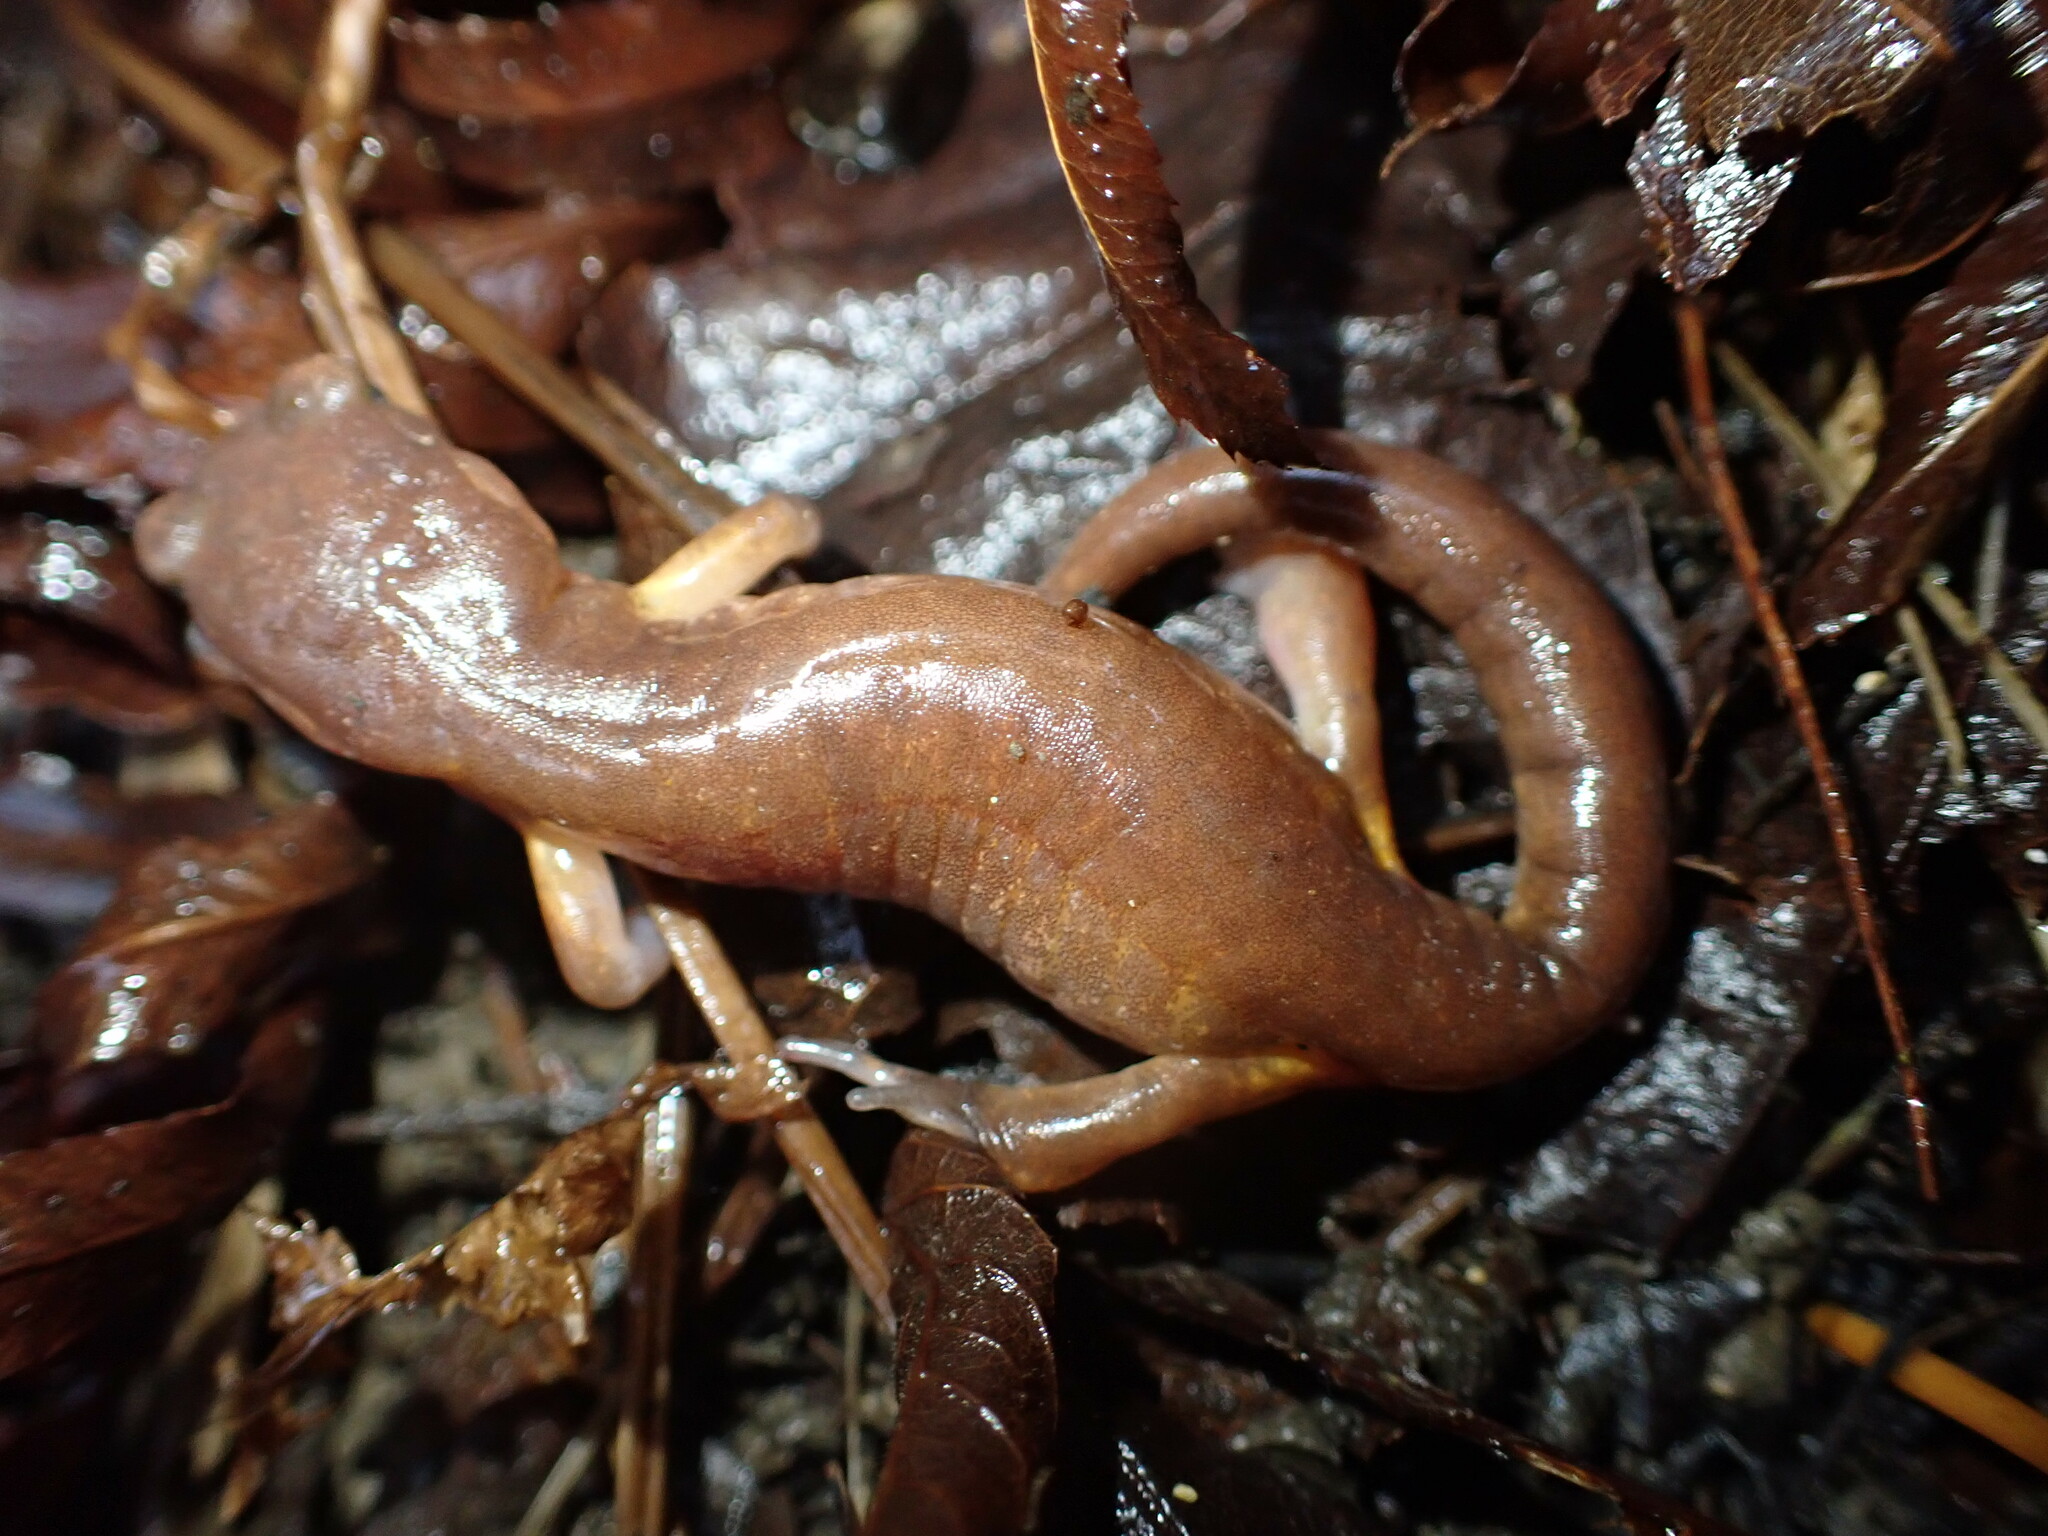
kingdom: Animalia
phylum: Chordata
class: Amphibia
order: Caudata
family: Plethodontidae
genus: Ensatina
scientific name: Ensatina eschscholtzii
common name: Ensatina
